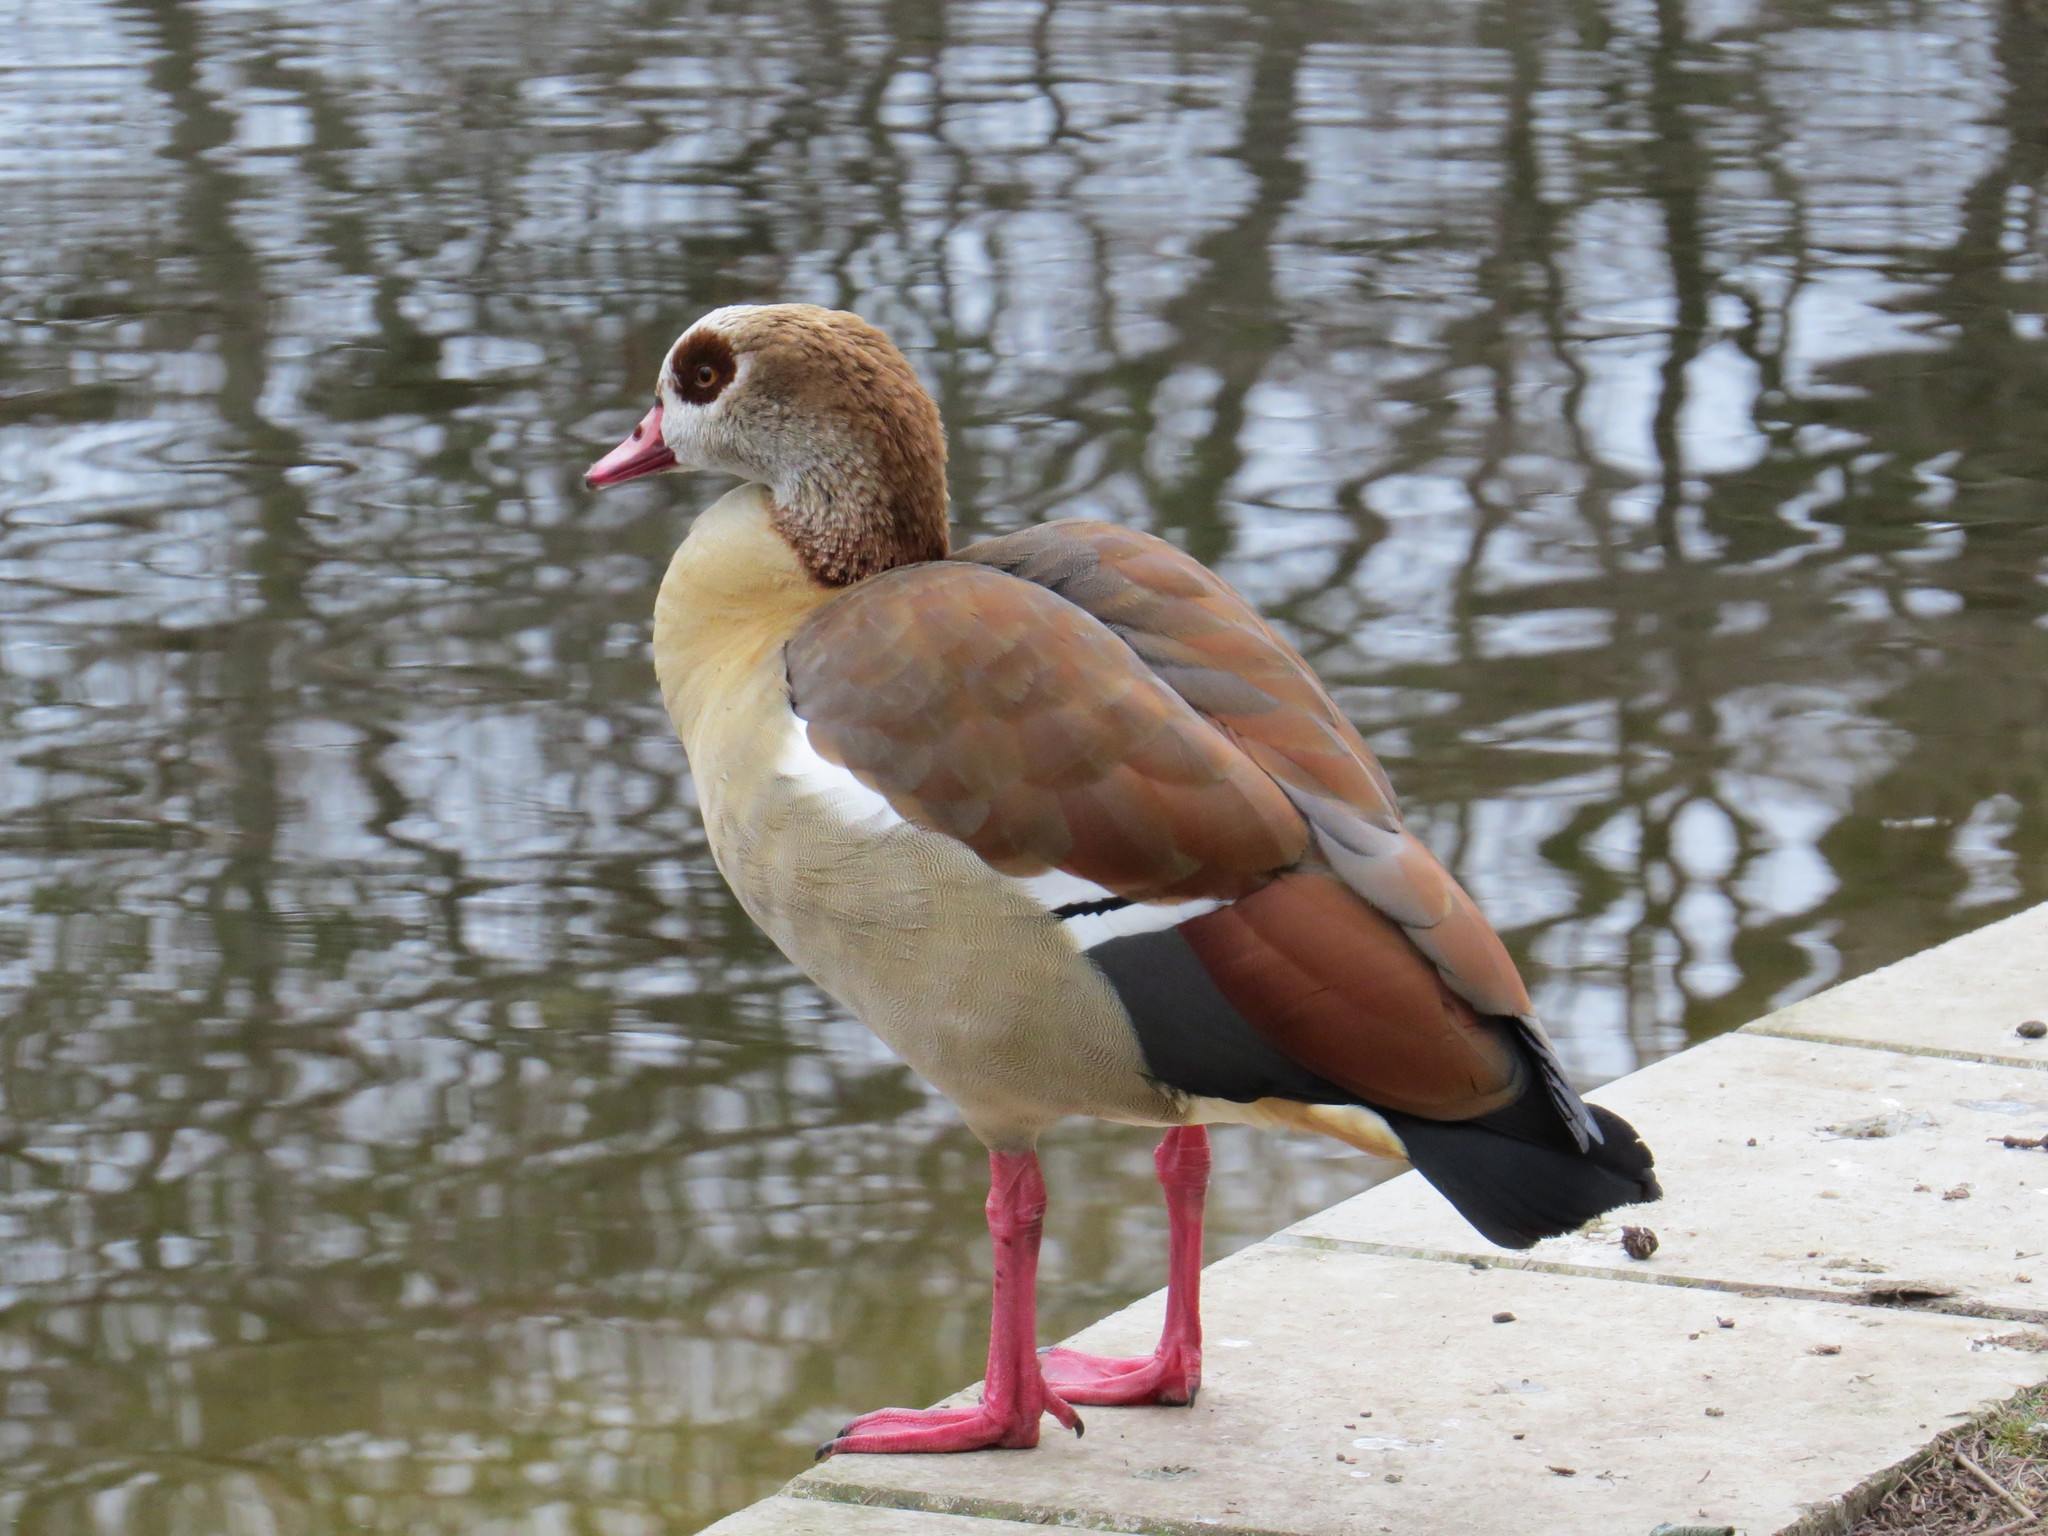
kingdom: Animalia
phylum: Chordata
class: Aves
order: Anseriformes
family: Anatidae
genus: Alopochen
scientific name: Alopochen aegyptiaca
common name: Egyptian goose
